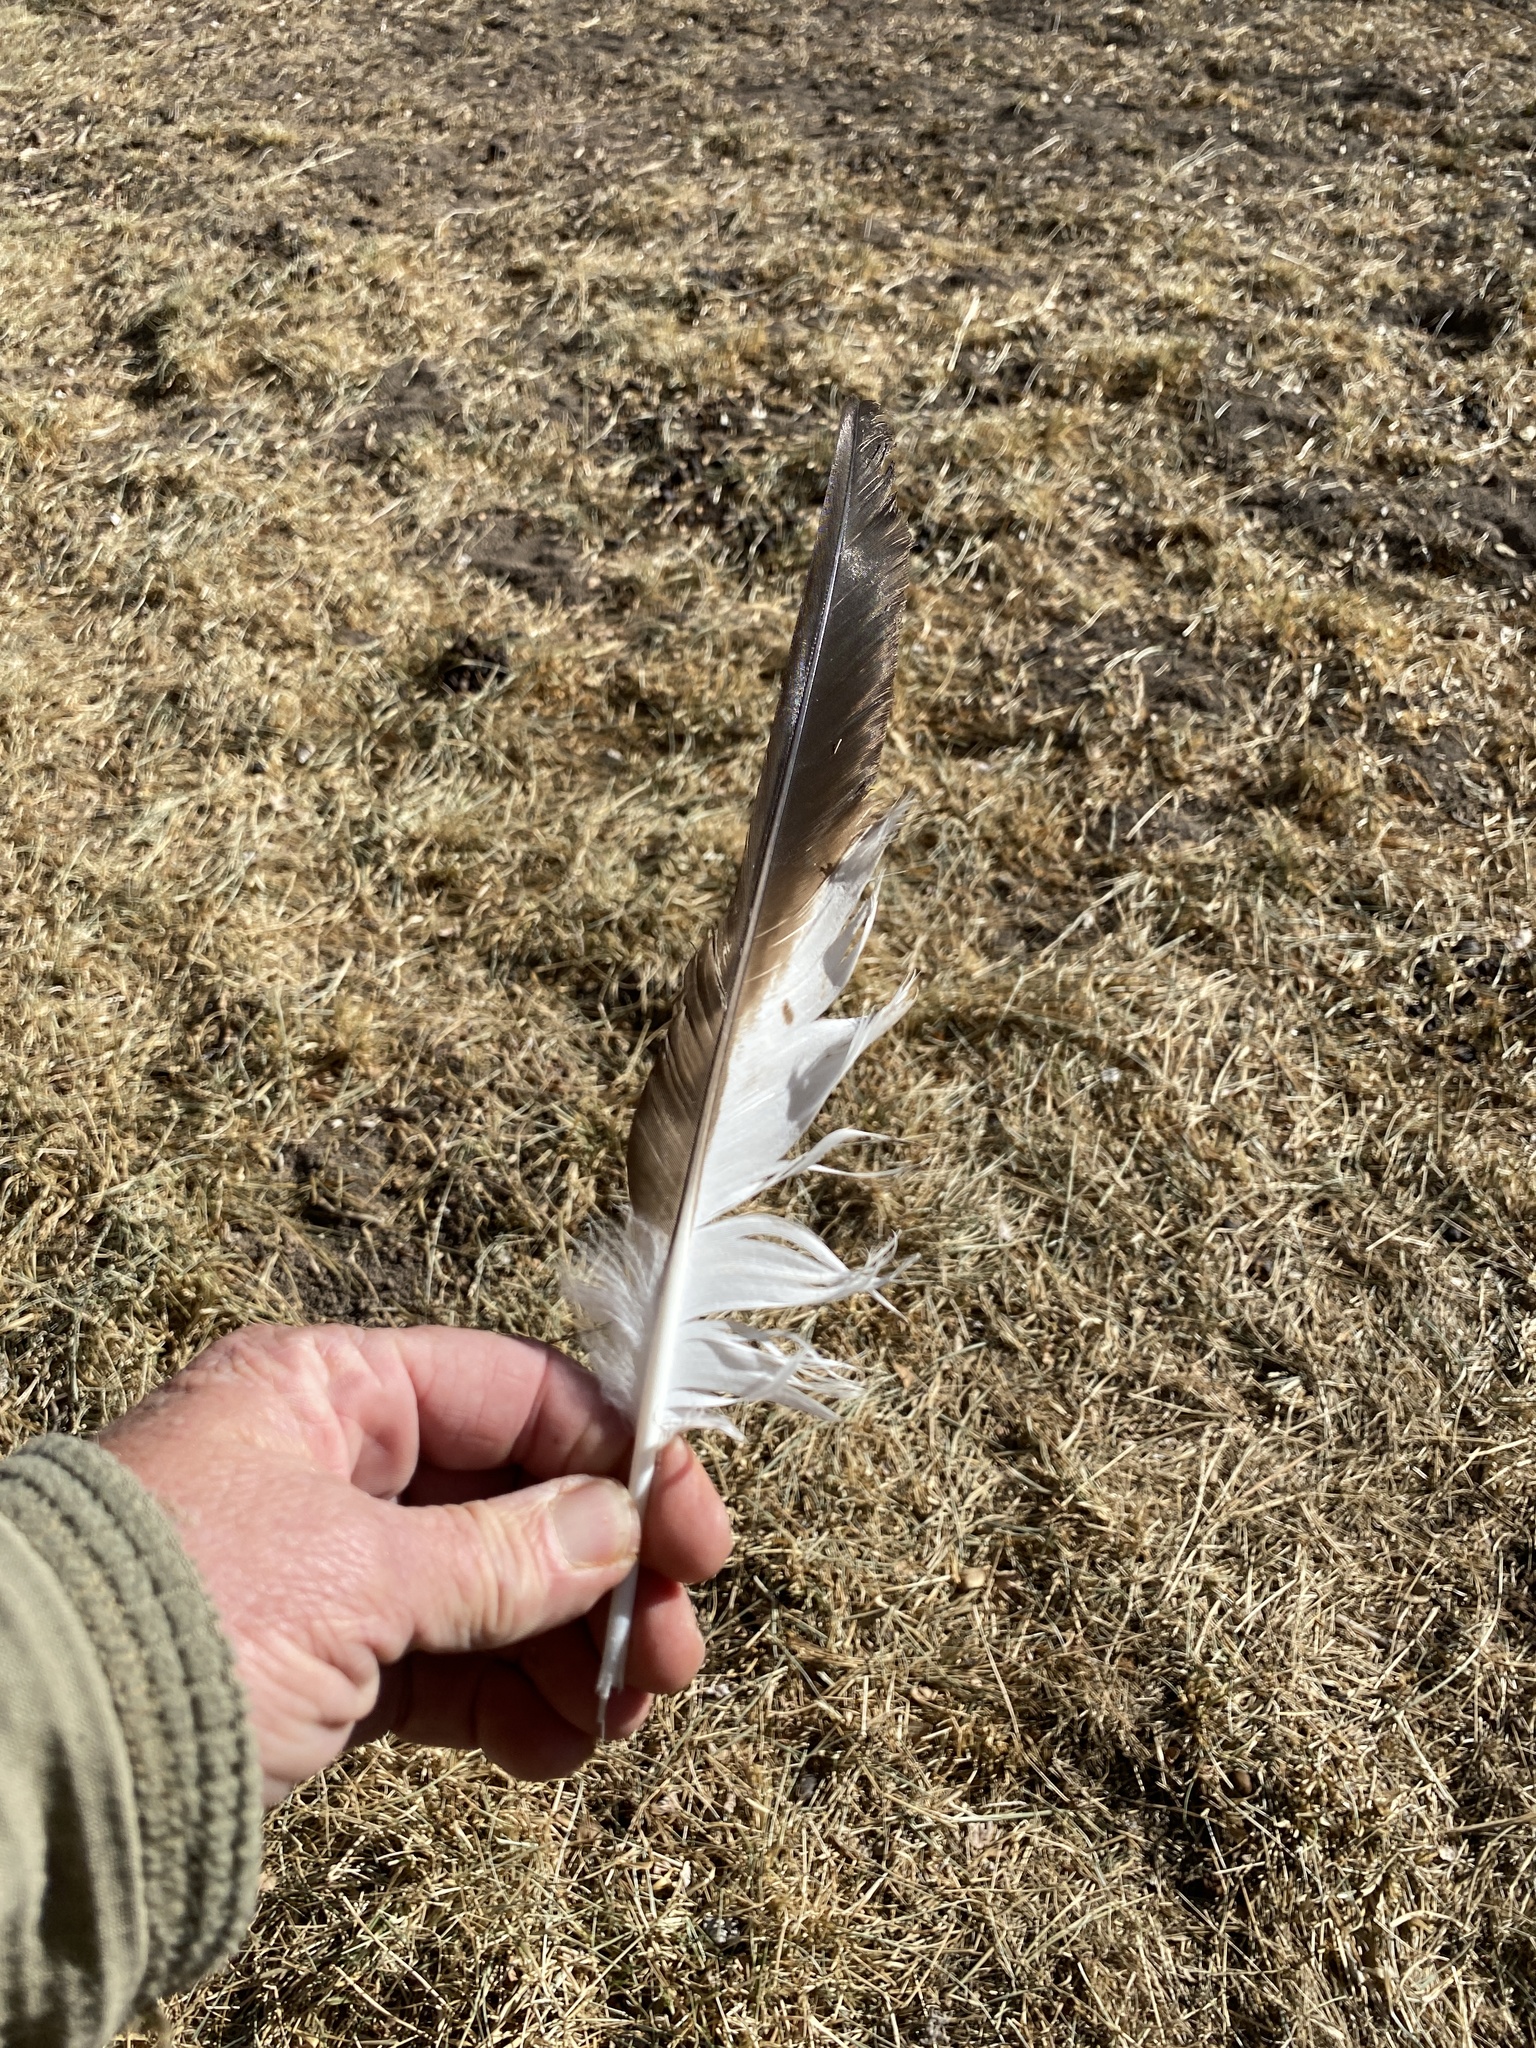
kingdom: Animalia
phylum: Chordata
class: Aves
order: Accipitriformes
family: Accipitridae
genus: Buteo
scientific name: Buteo jamaicensis
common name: Red-tailed hawk
